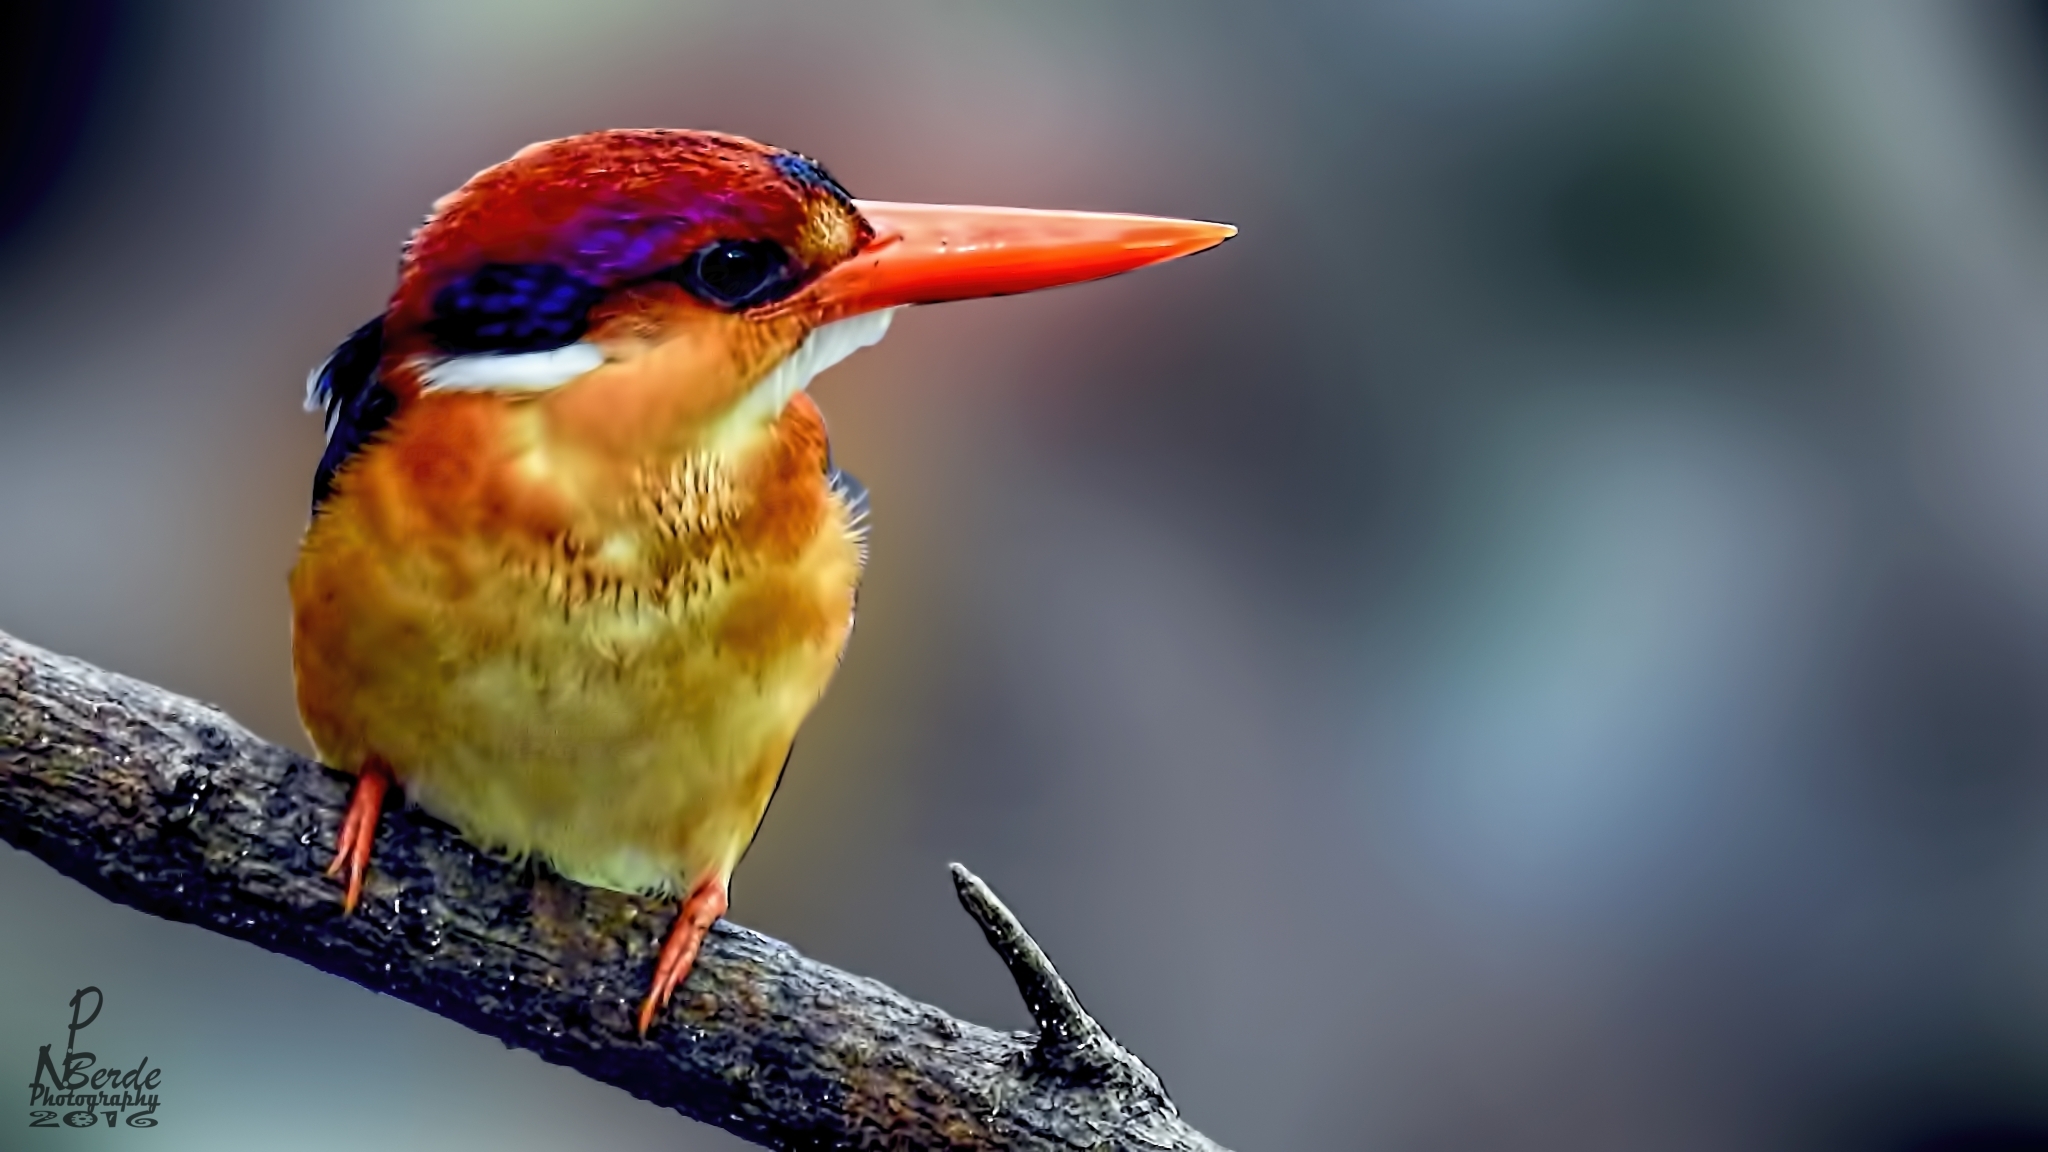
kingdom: Animalia
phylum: Chordata
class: Aves
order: Coraciiformes
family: Alcedinidae
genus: Ceyx
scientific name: Ceyx erithaca
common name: Oriental dwarf kingfisher
